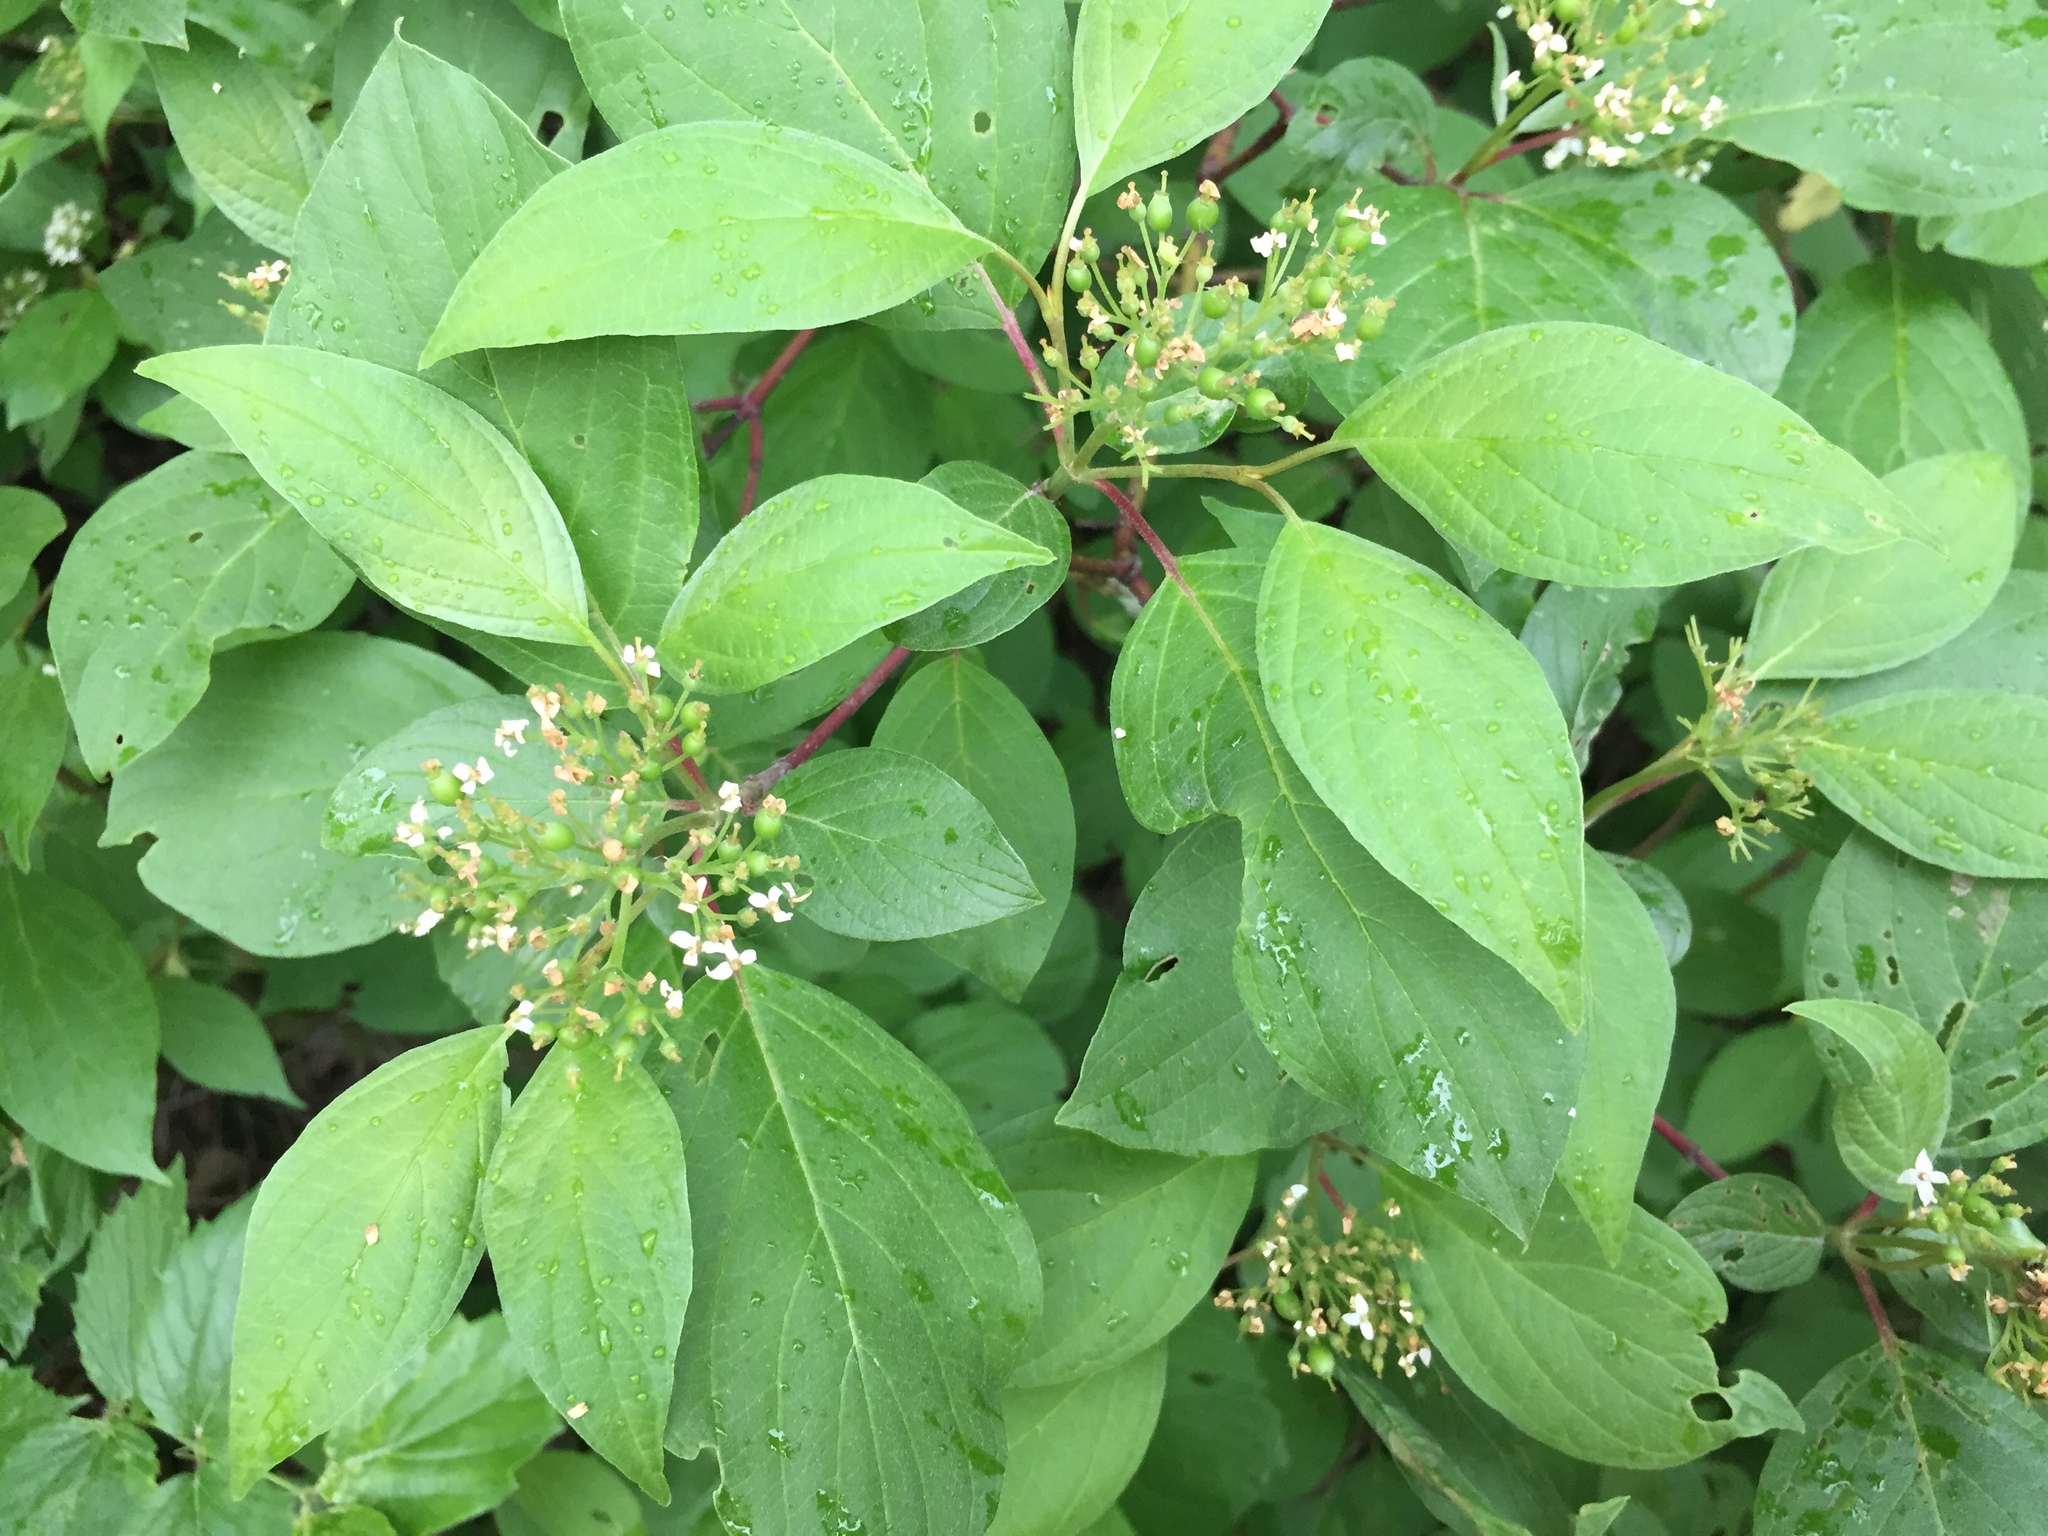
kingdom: Plantae
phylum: Tracheophyta
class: Magnoliopsida
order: Cornales
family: Cornaceae
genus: Cornus
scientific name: Cornus sericea
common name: Red-osier dogwood
